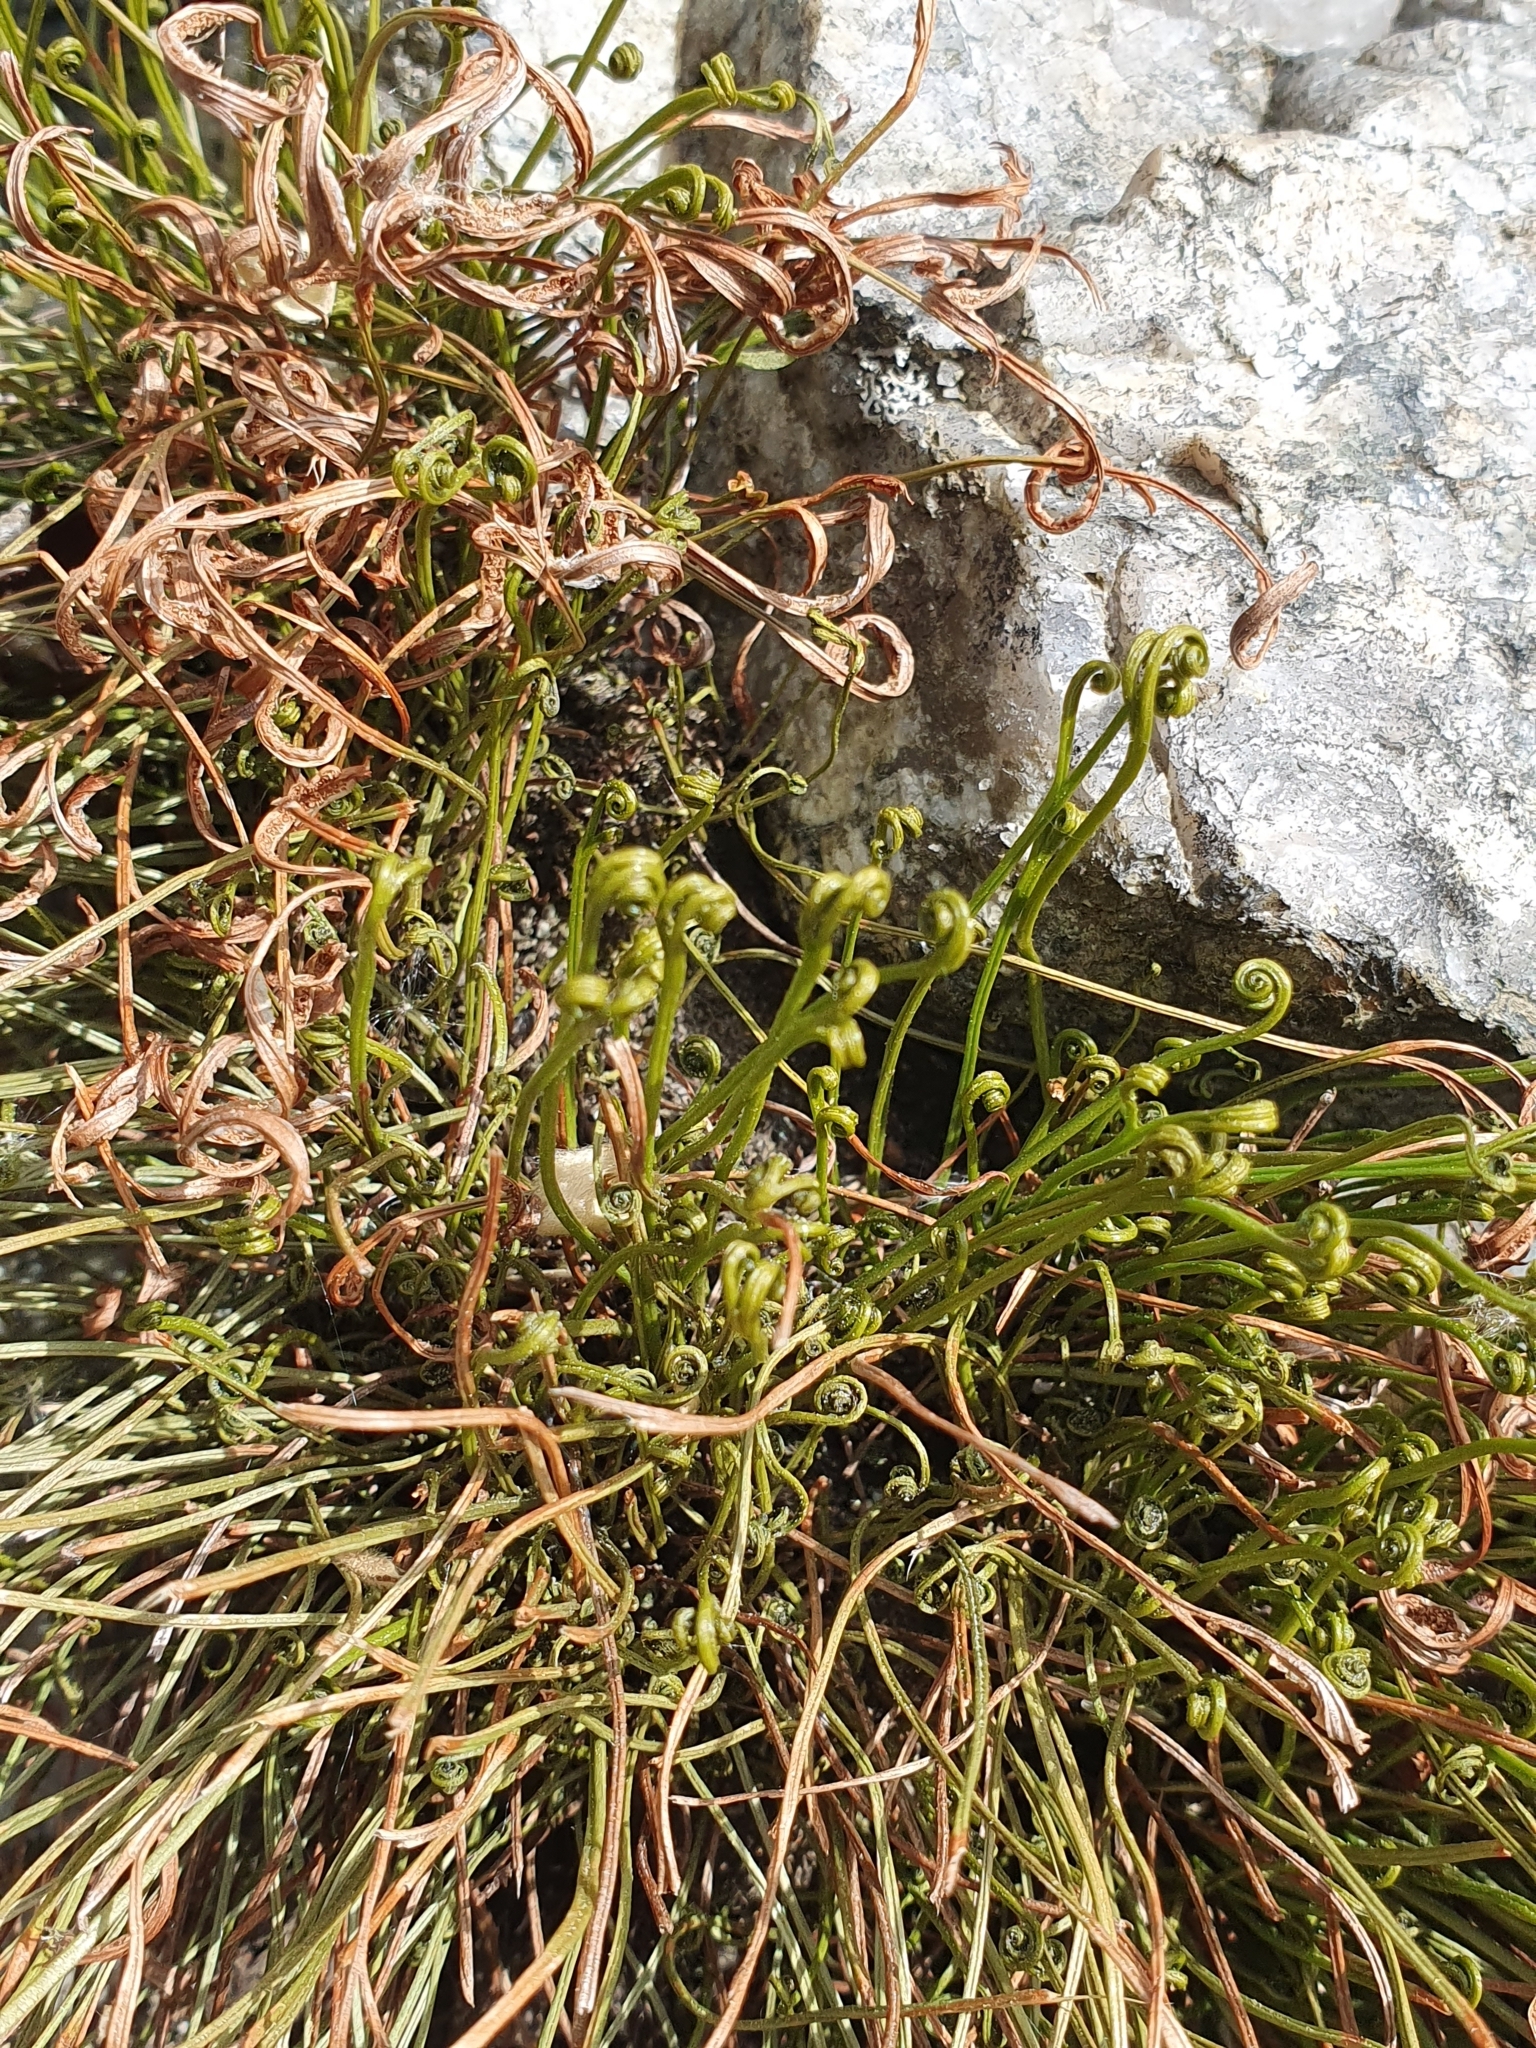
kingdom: Plantae
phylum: Tracheophyta
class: Polypodiopsida
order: Polypodiales
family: Aspleniaceae
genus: Asplenium
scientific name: Asplenium septentrionale
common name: Forked spleenwort
